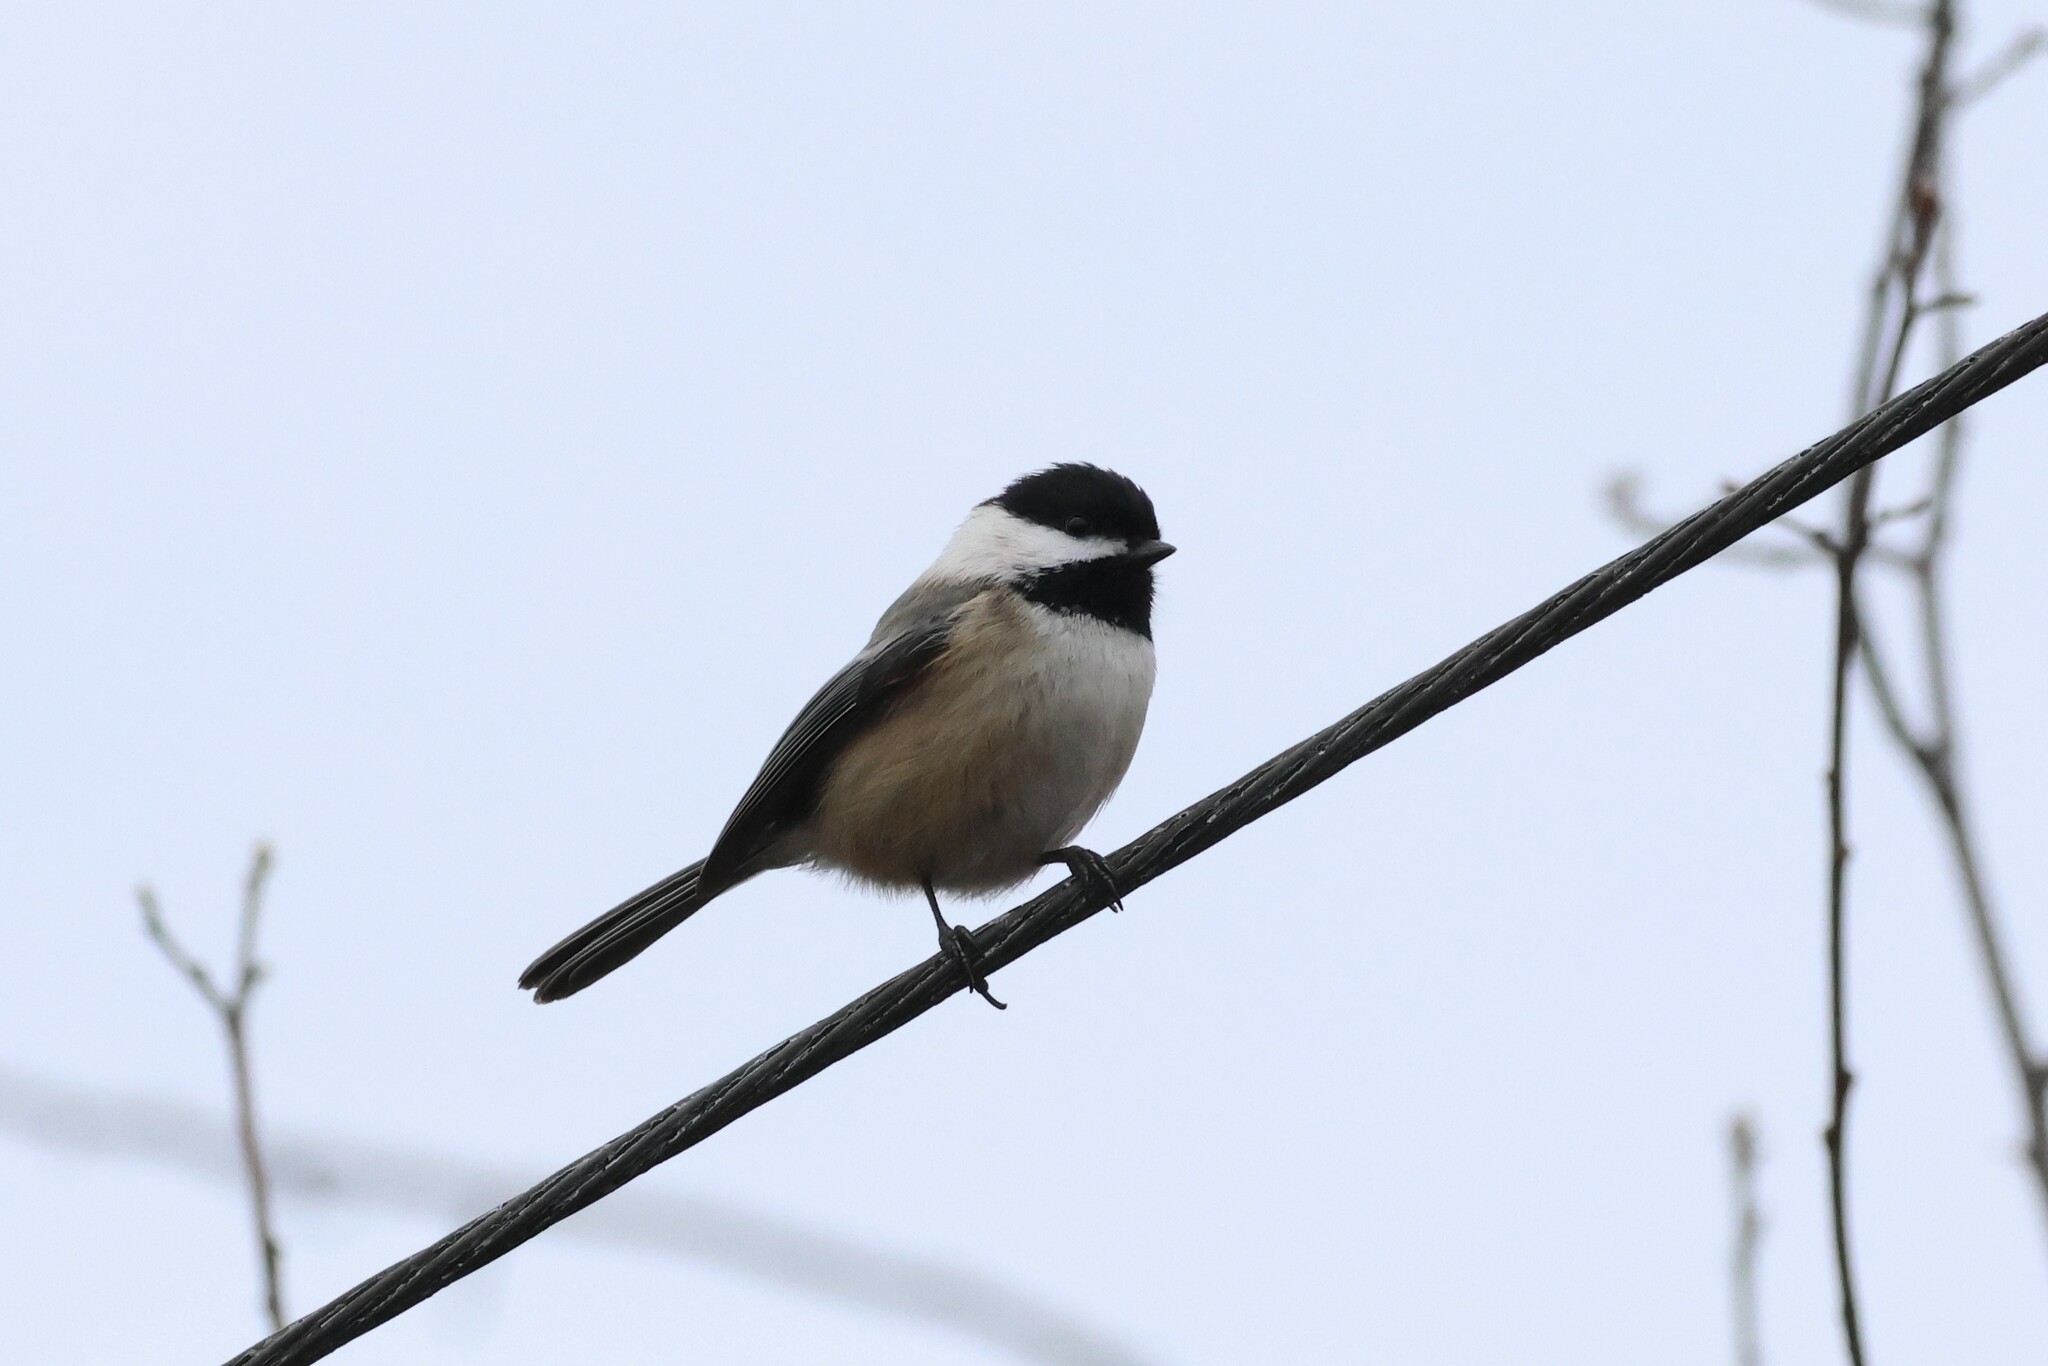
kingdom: Animalia
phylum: Chordata
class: Aves
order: Passeriformes
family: Paridae
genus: Poecile
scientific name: Poecile atricapillus
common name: Black-capped chickadee
